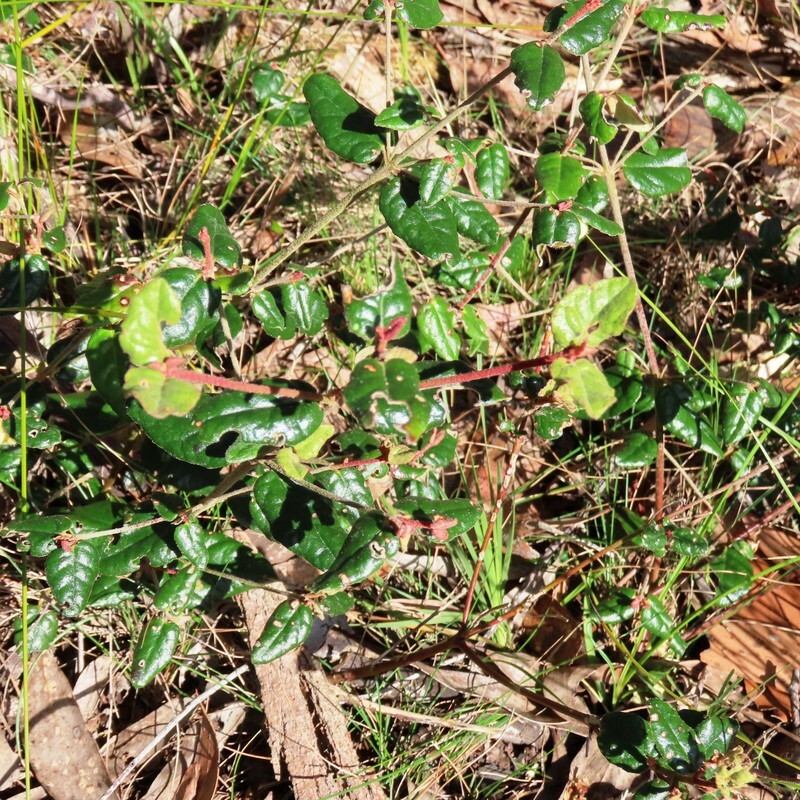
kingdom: Plantae
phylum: Tracheophyta
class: Magnoliopsida
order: Sapindales
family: Rutaceae
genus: Correa
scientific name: Correa reflexa
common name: Common correa
